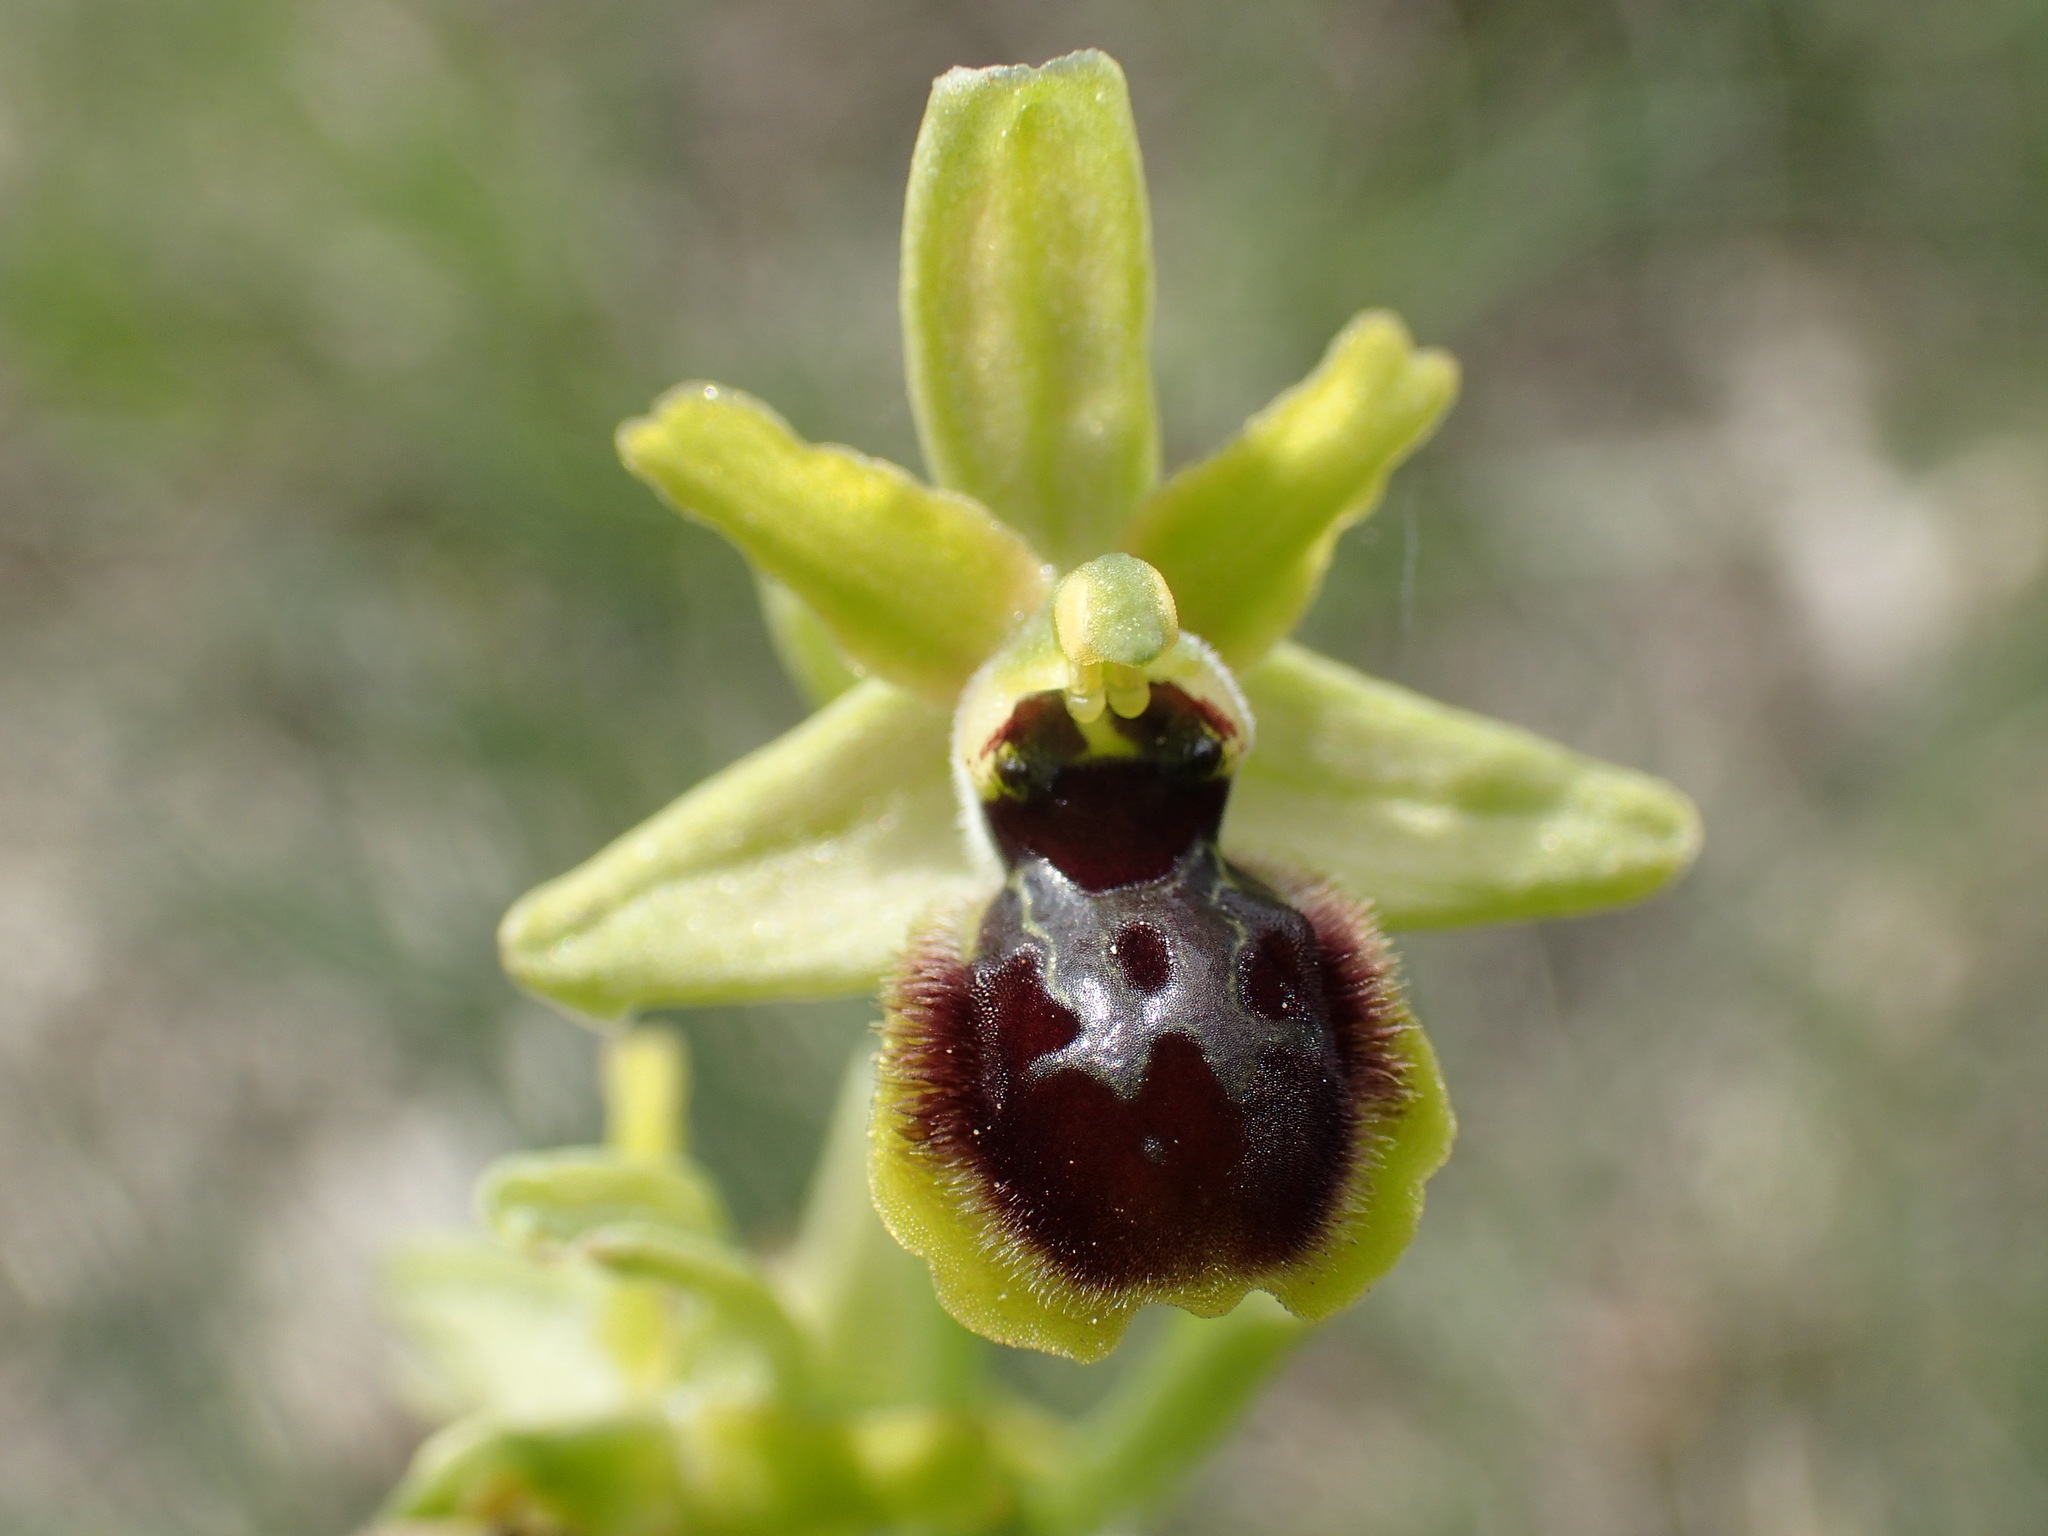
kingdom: Plantae
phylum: Tracheophyta
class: Liliopsida
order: Asparagales
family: Orchidaceae
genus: Ophrys
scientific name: Ophrys araneola
